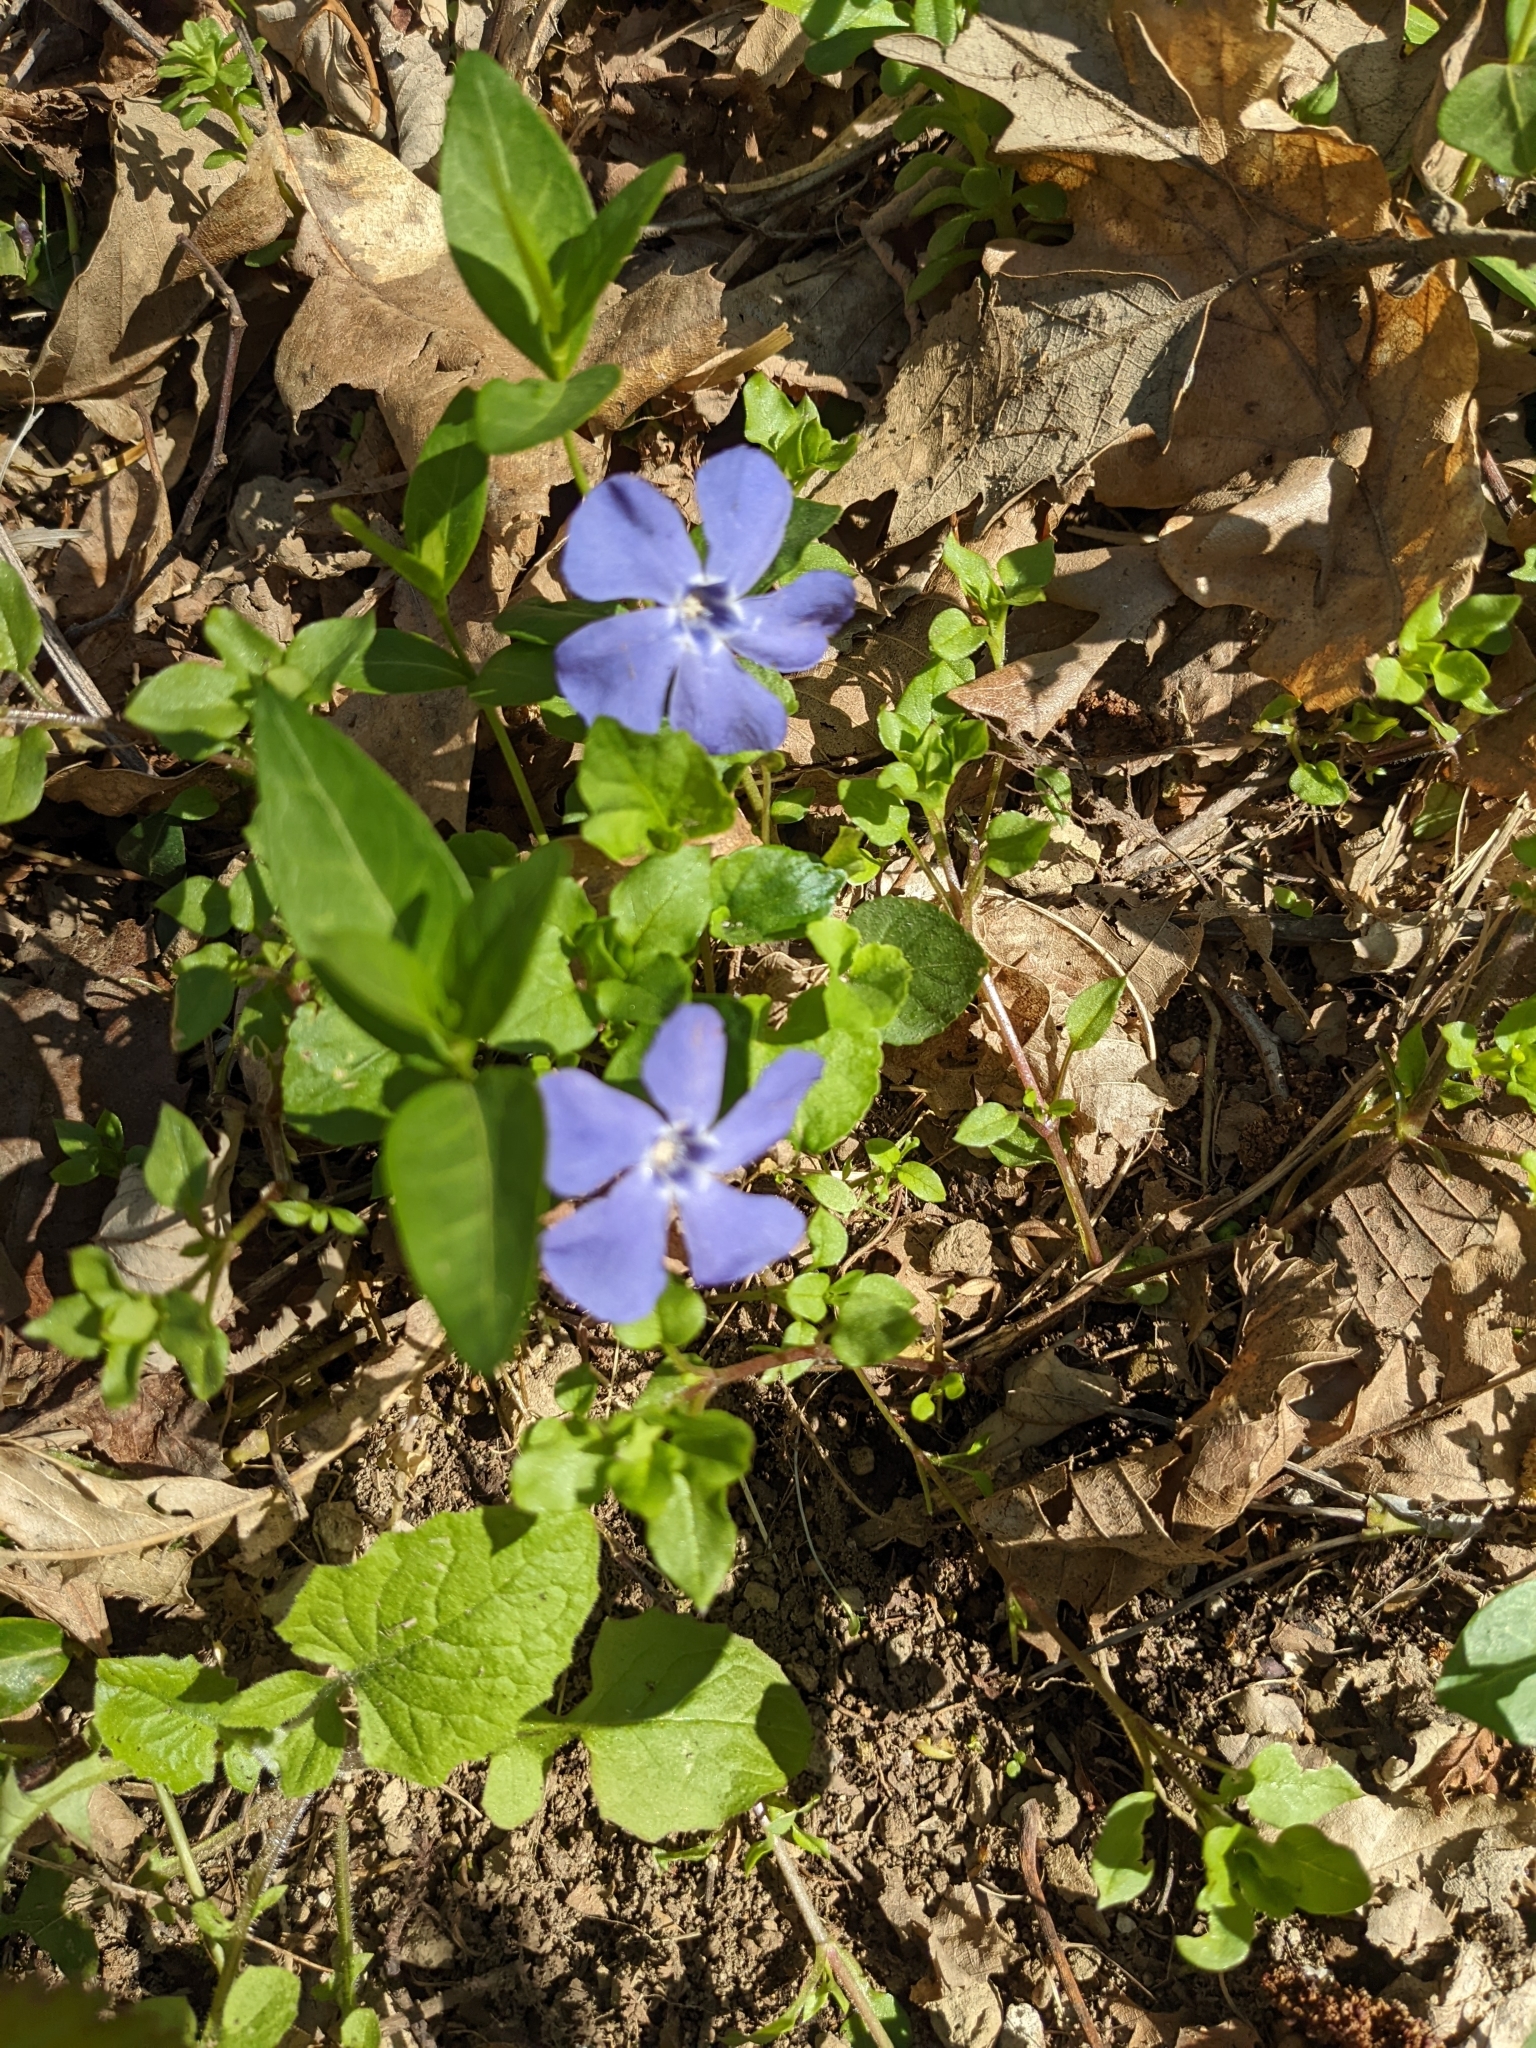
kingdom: Plantae
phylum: Tracheophyta
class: Magnoliopsida
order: Gentianales
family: Apocynaceae
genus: Vinca
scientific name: Vinca minor
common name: Lesser periwinkle
